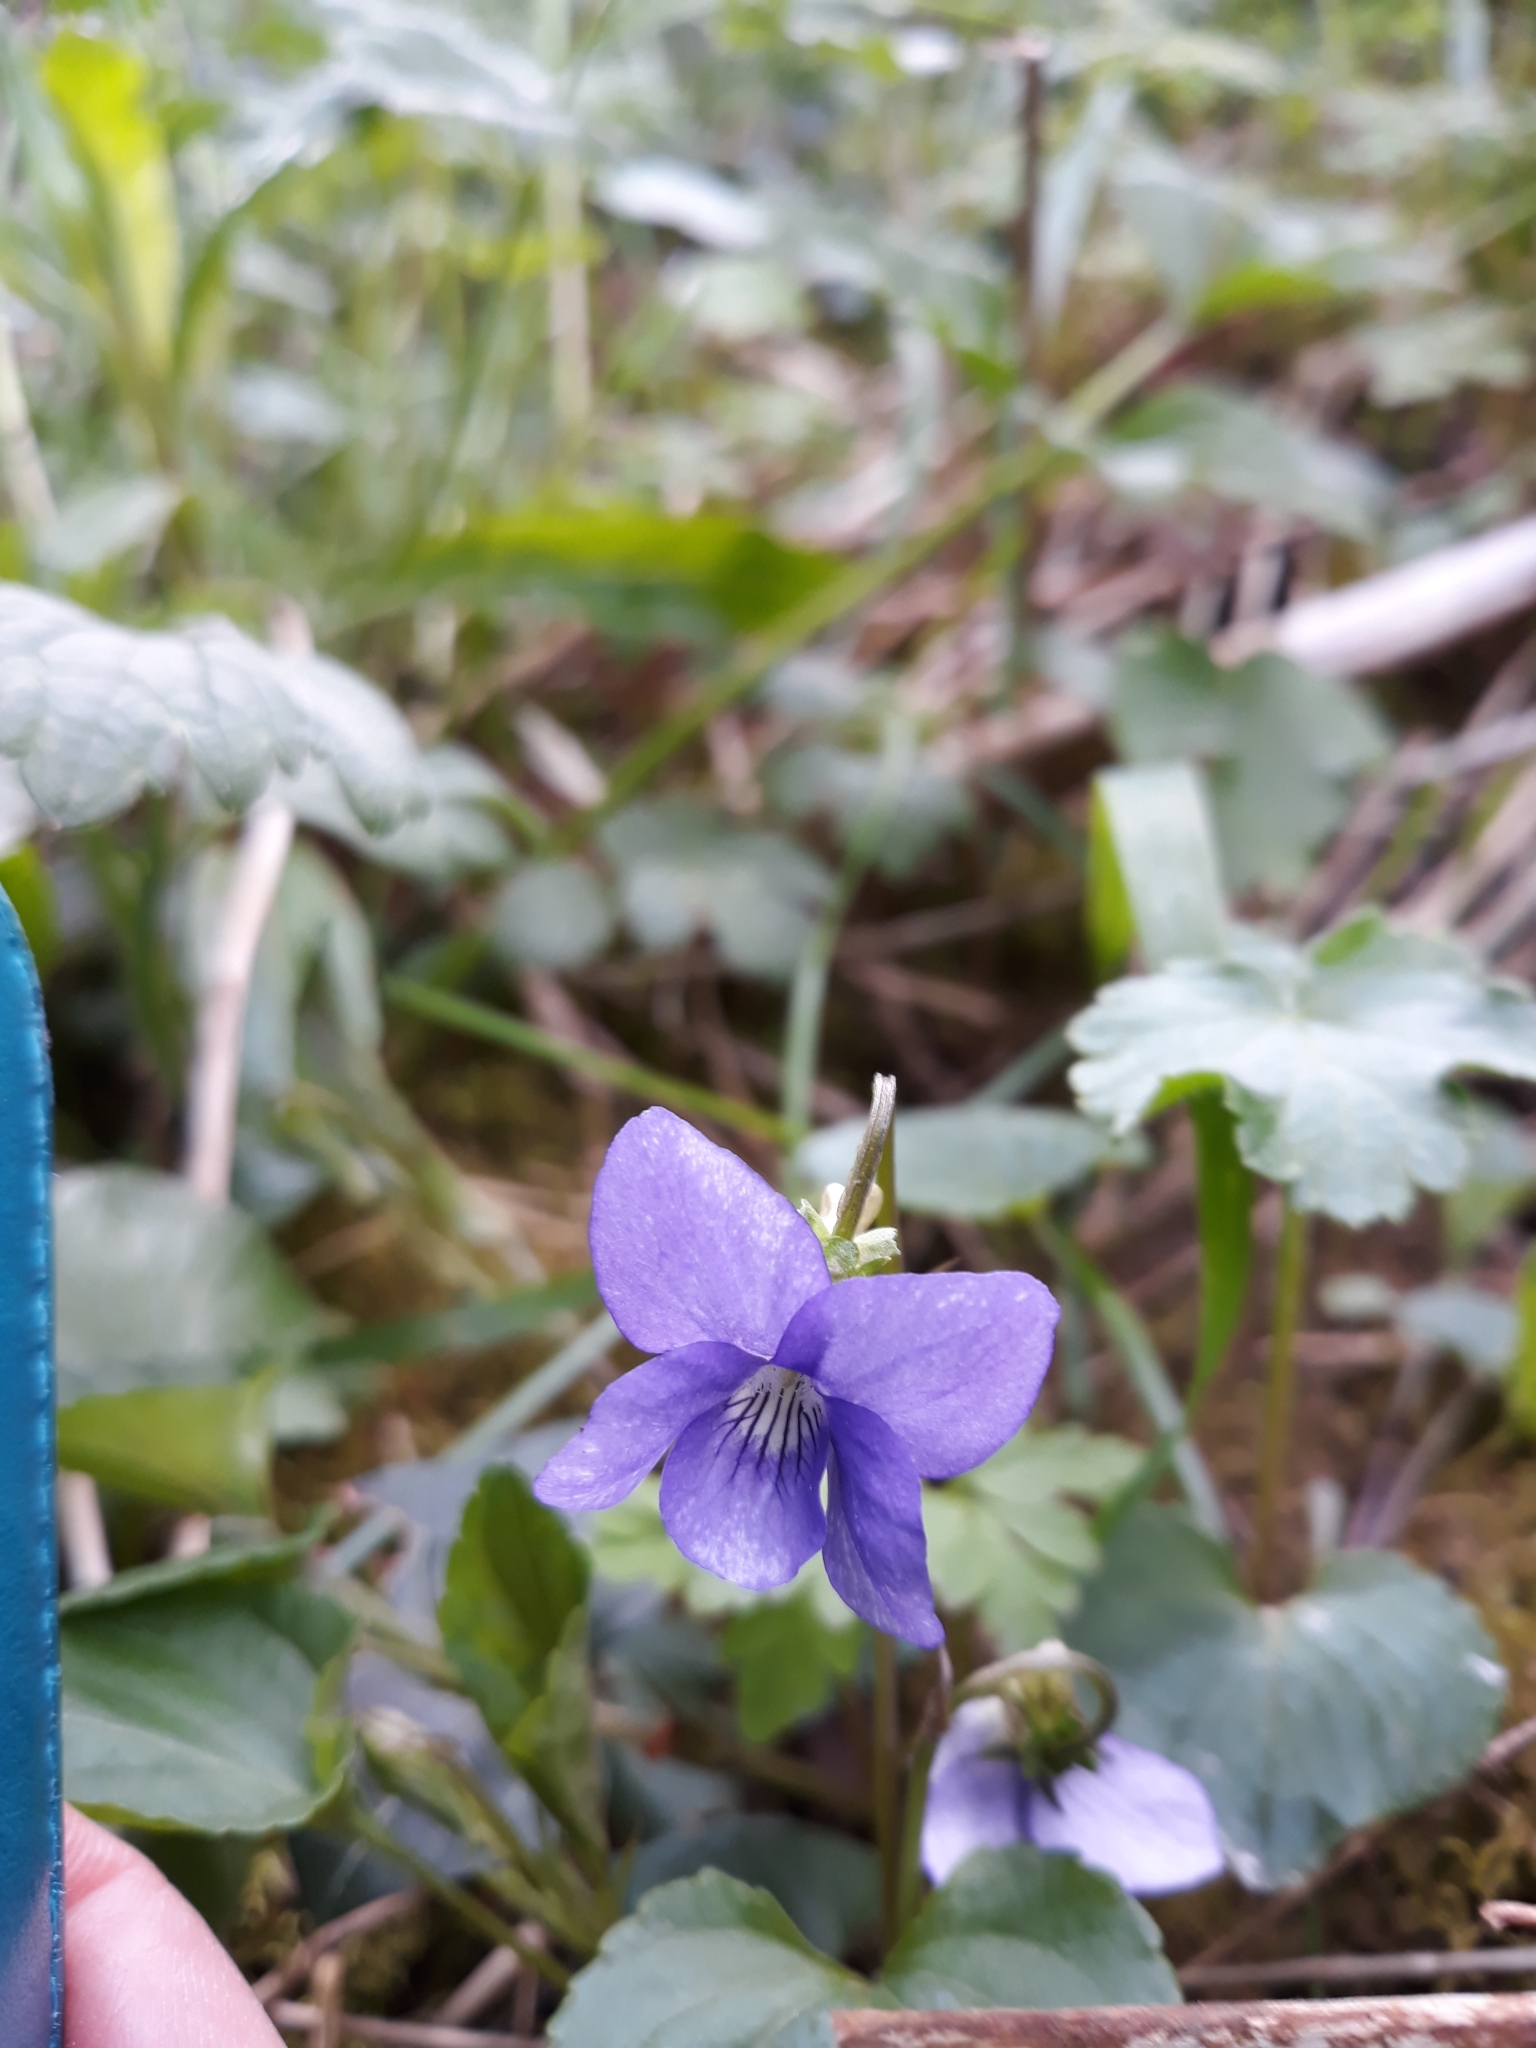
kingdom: Plantae
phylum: Tracheophyta
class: Magnoliopsida
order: Malpighiales
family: Violaceae
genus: Viola
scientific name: Viola riviniana
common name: Common dog-violet
